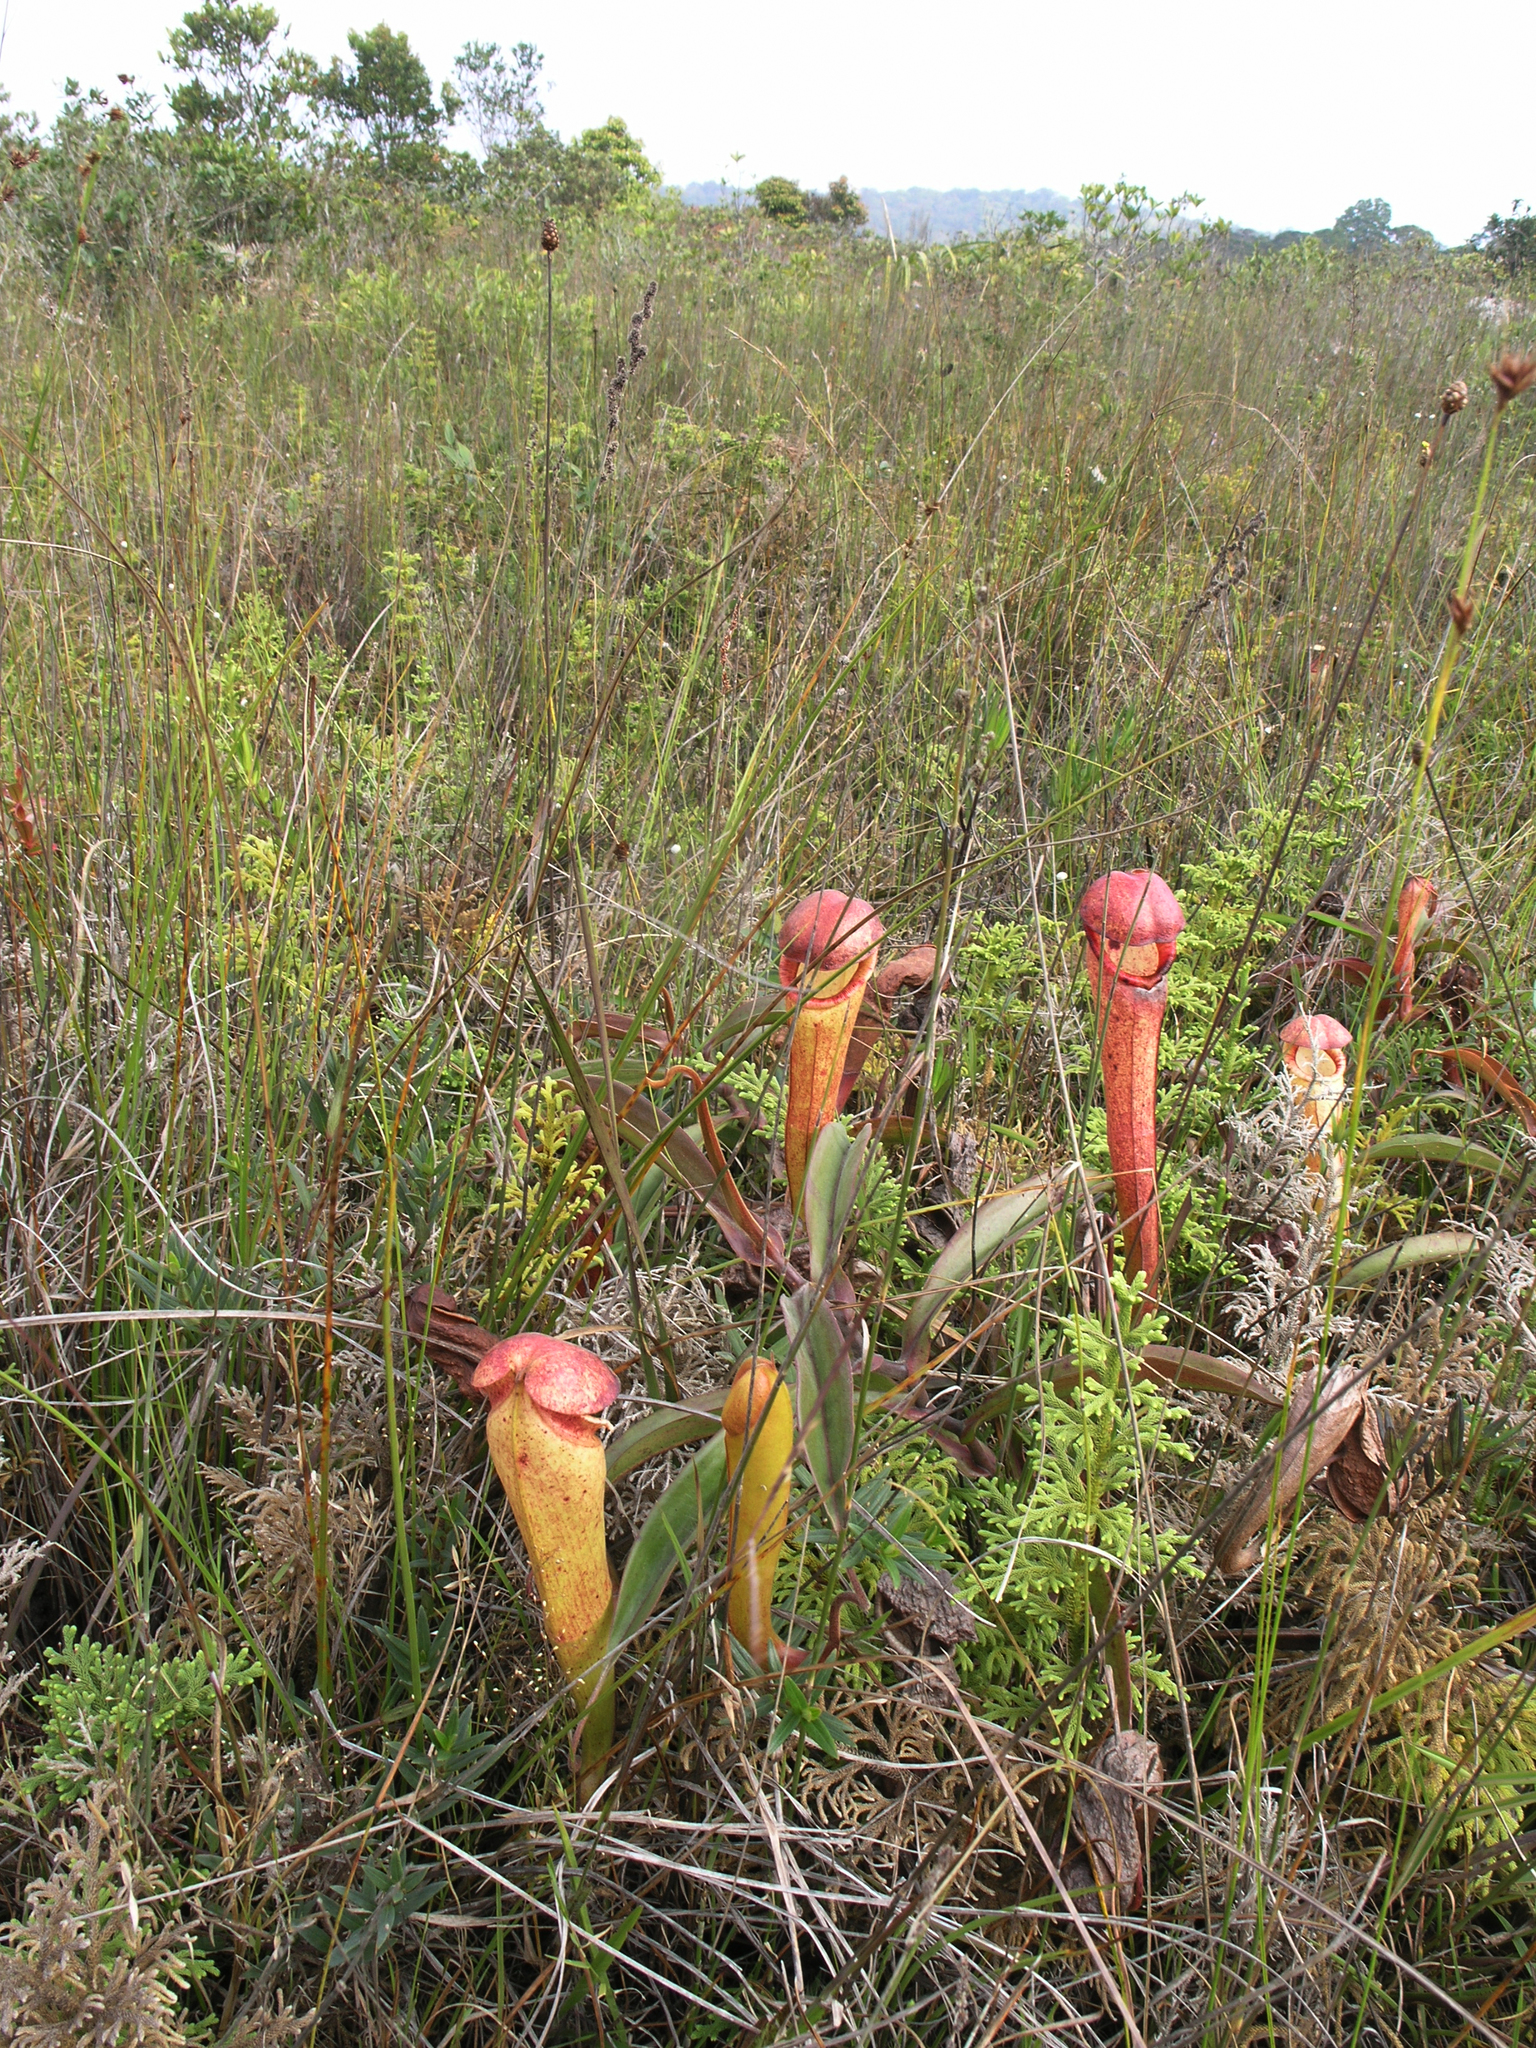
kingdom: Plantae
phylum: Tracheophyta
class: Magnoliopsida
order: Caryophyllales
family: Nepenthaceae
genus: Nepenthes
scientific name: Nepenthes bokorensis
